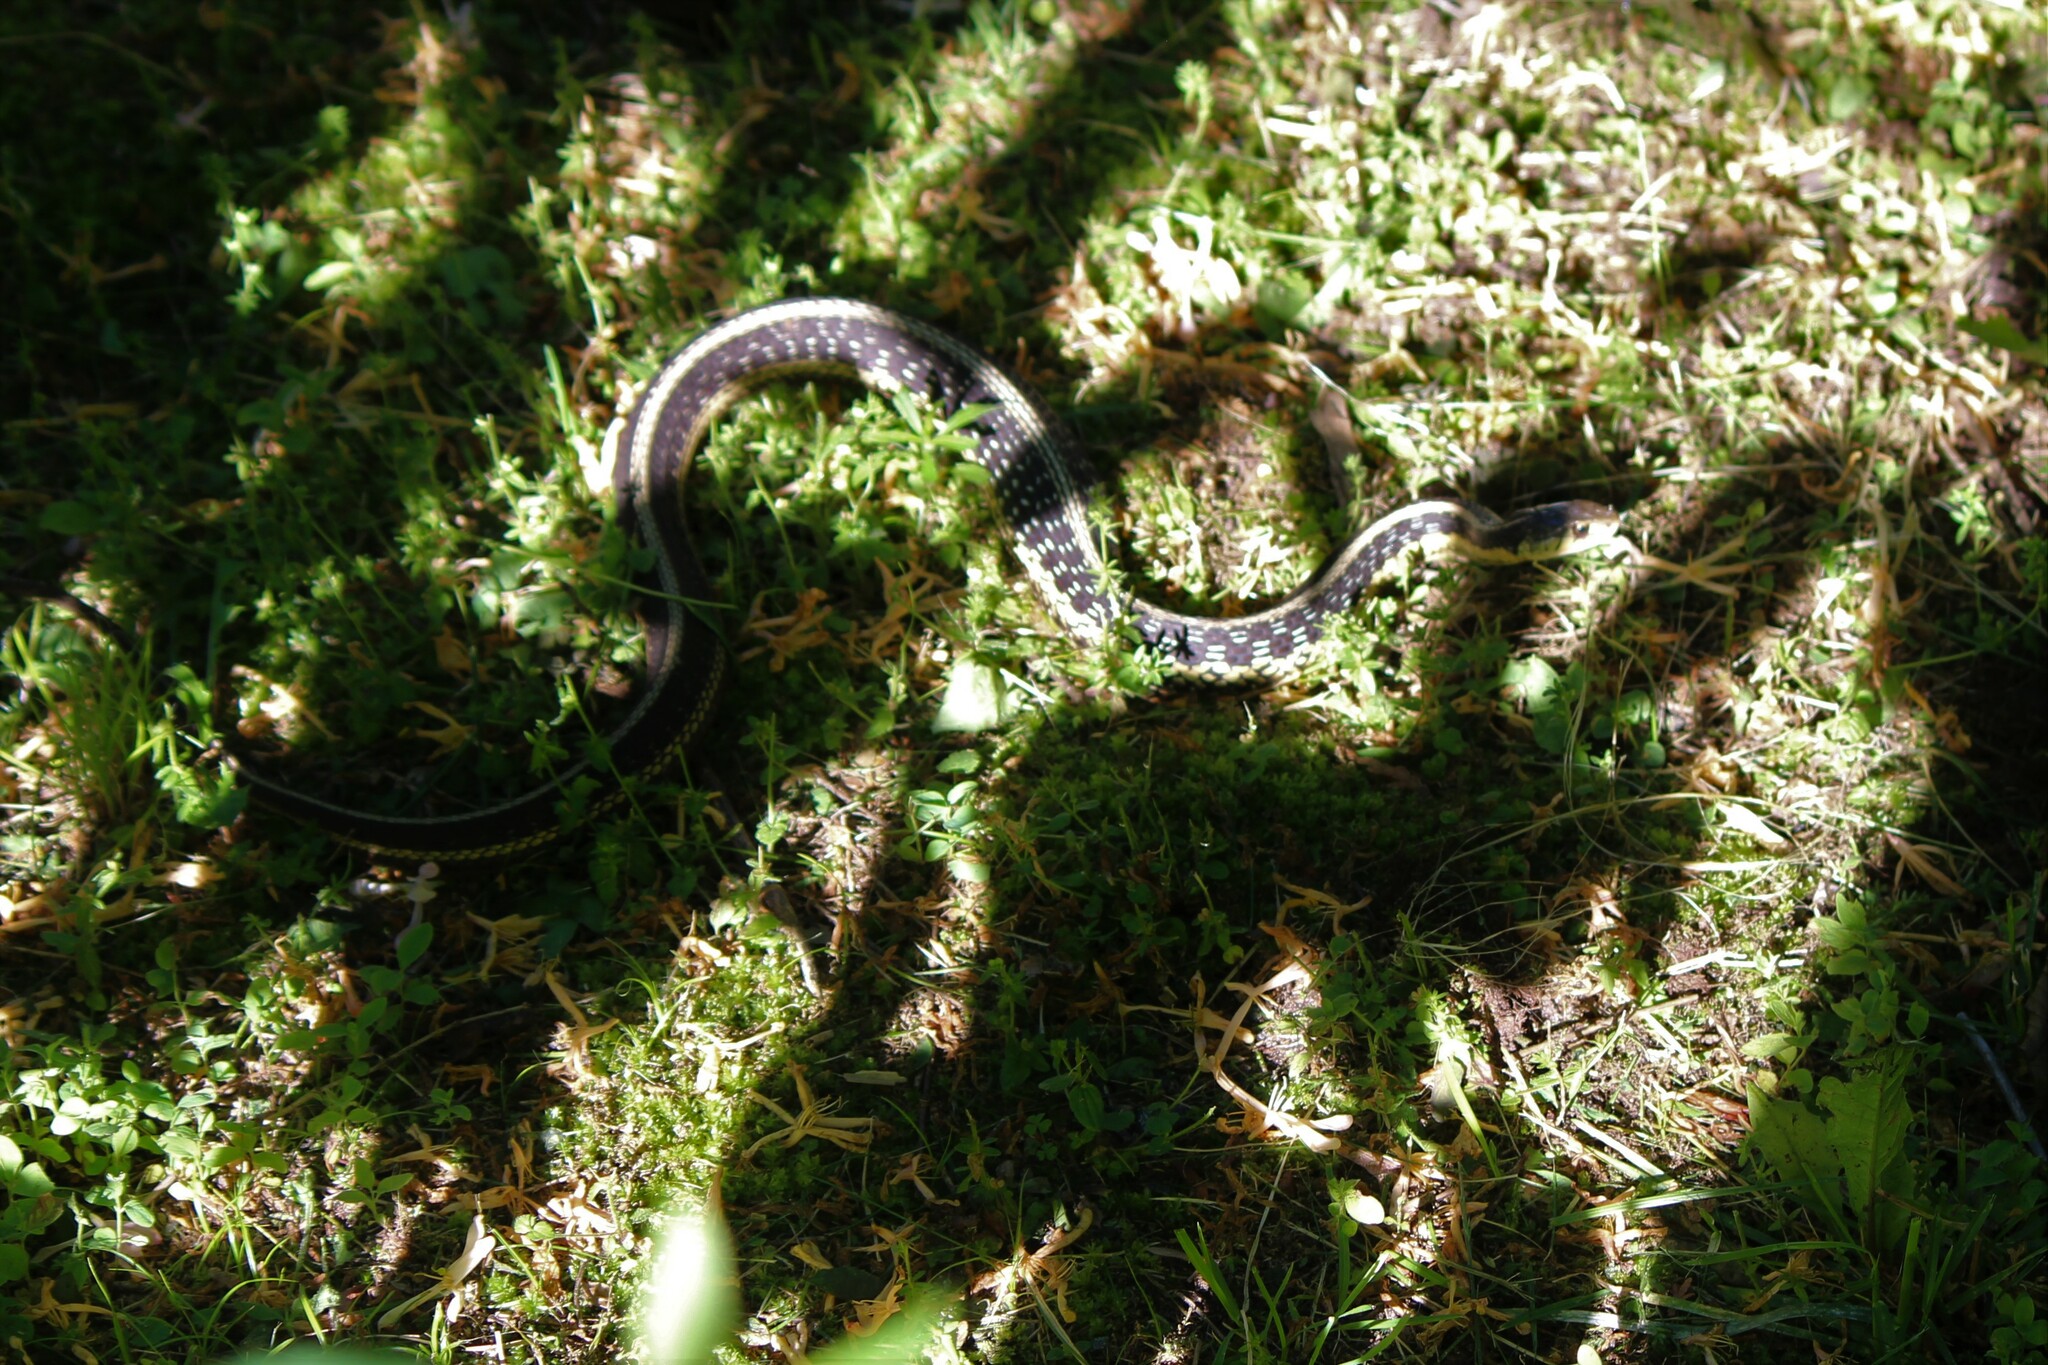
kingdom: Animalia
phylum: Chordata
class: Squamata
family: Colubridae
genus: Thamnophis
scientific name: Thamnophis sirtalis
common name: Common garter snake
